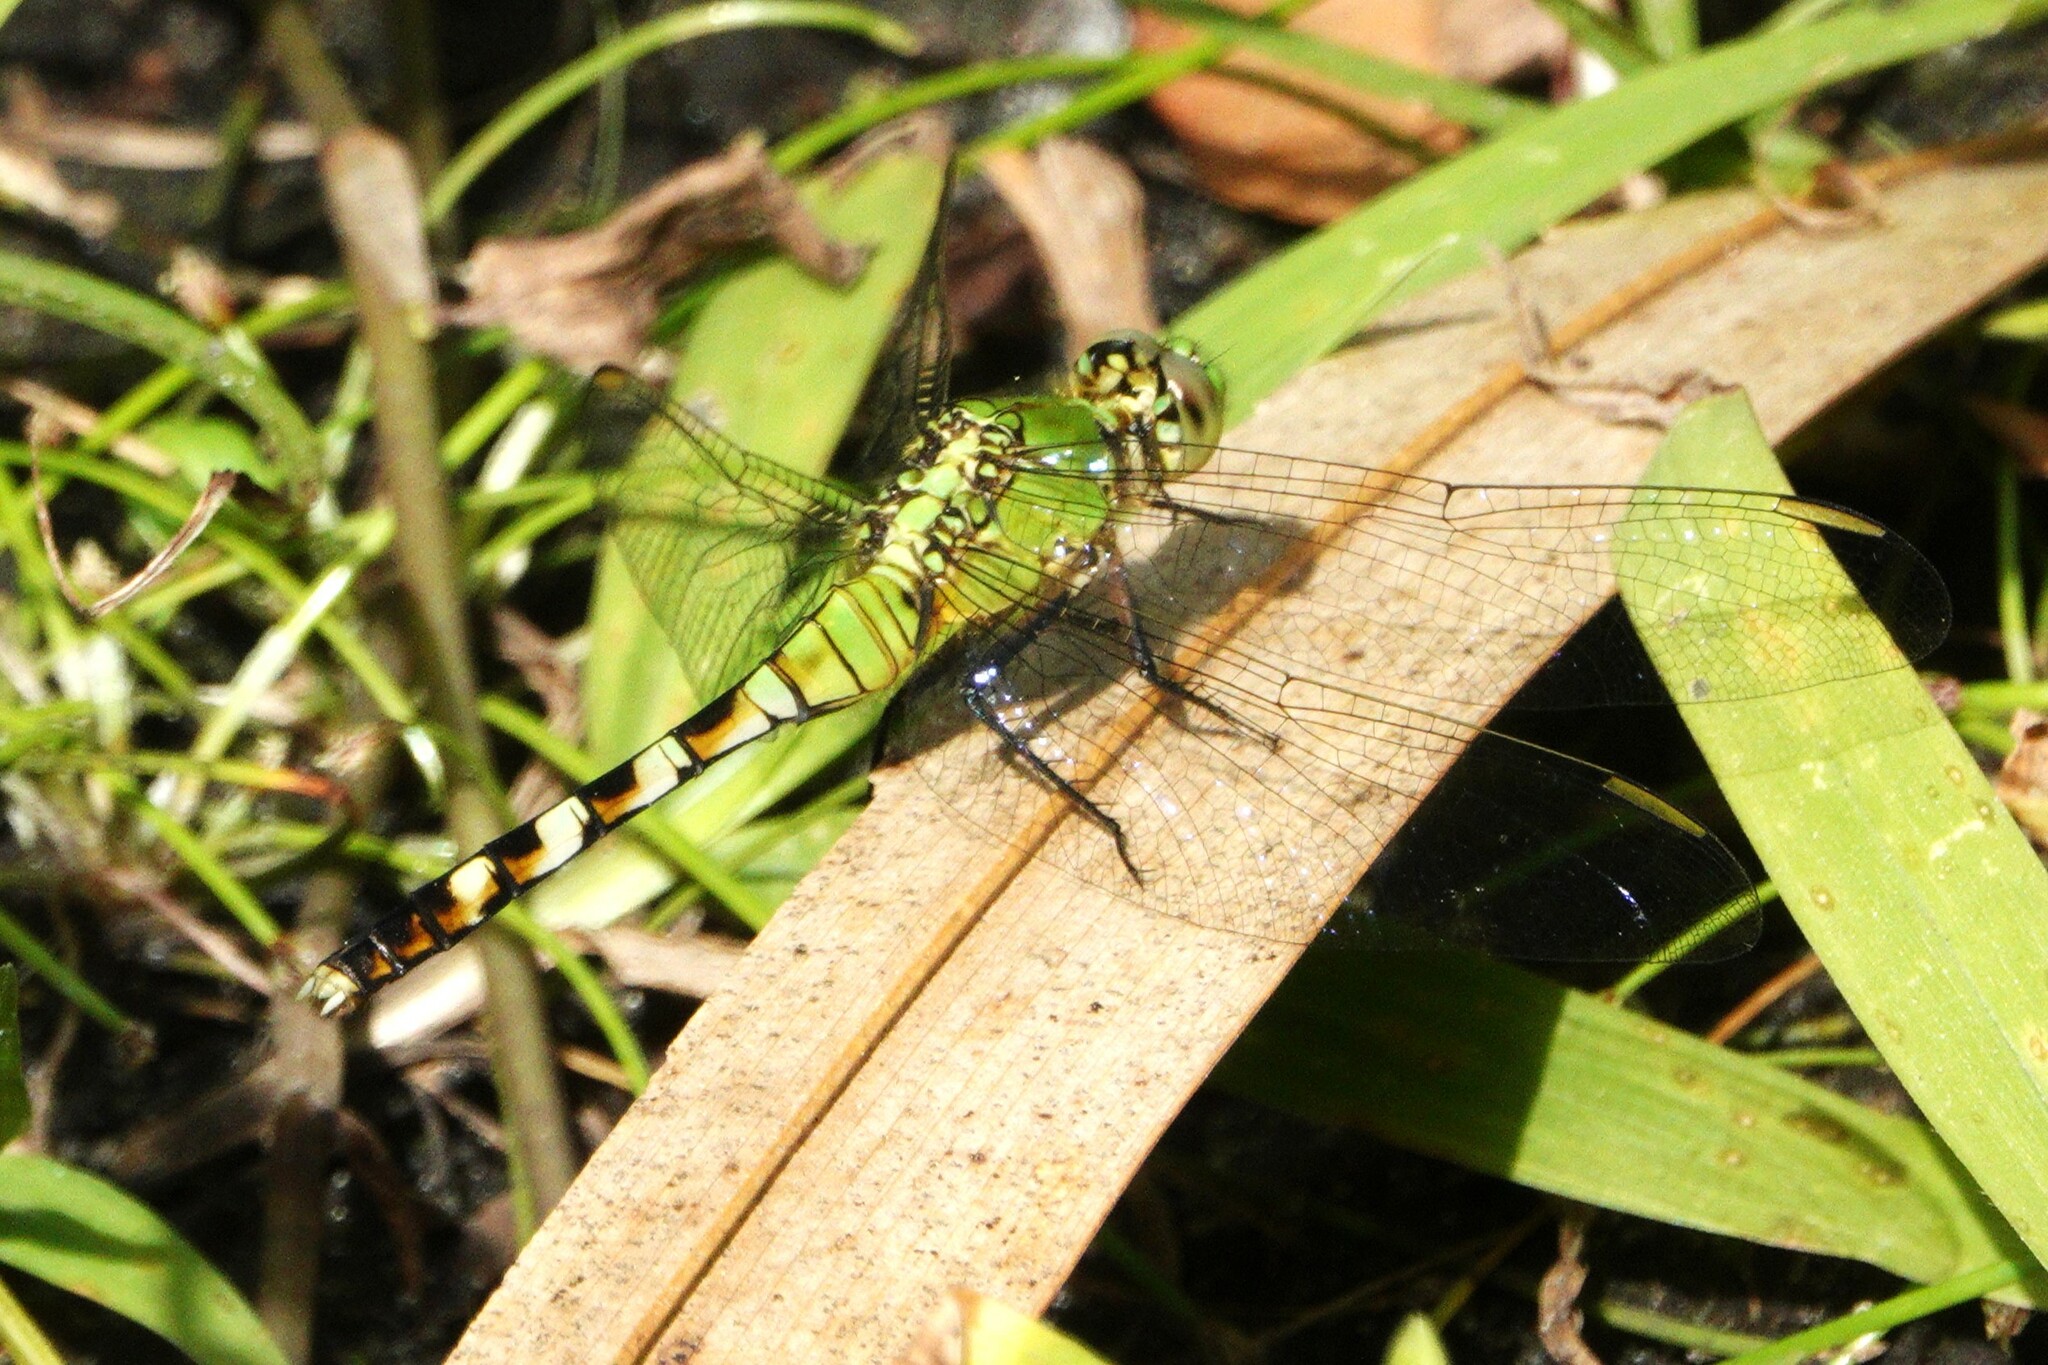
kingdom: Animalia
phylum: Arthropoda
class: Insecta
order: Odonata
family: Libellulidae
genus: Erythemis
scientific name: Erythemis simplicicollis
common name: Eastern pondhawk
